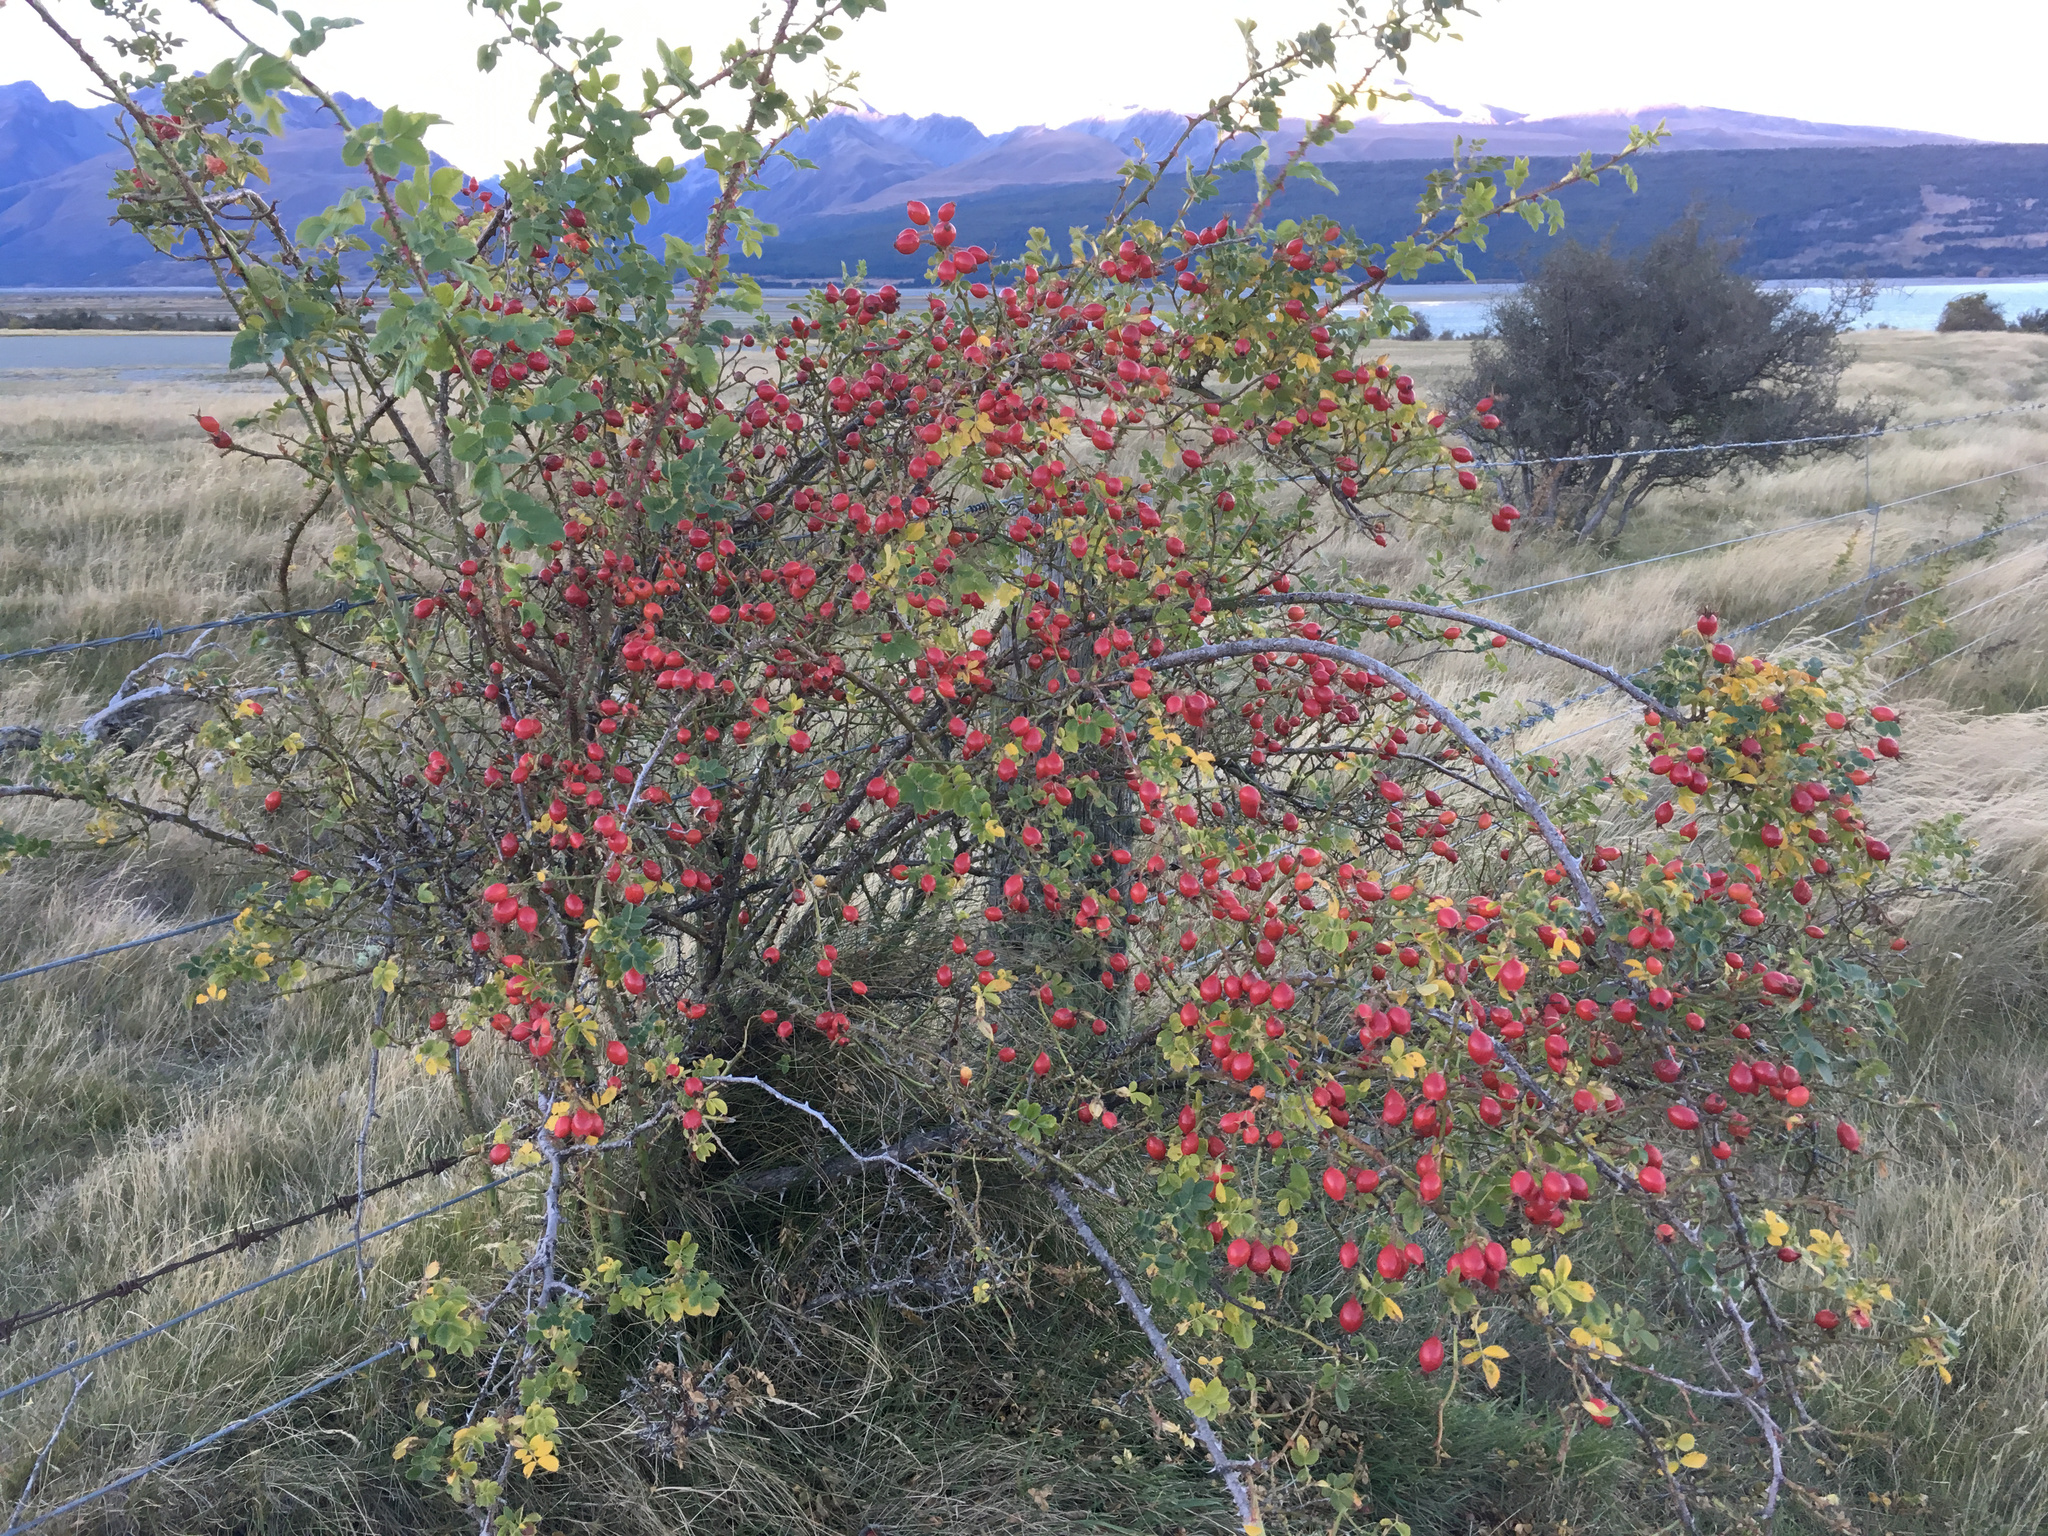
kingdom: Plantae
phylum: Tracheophyta
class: Magnoliopsida
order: Rosales
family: Rosaceae
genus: Rosa
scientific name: Rosa rubiginosa
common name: Sweet-briar
